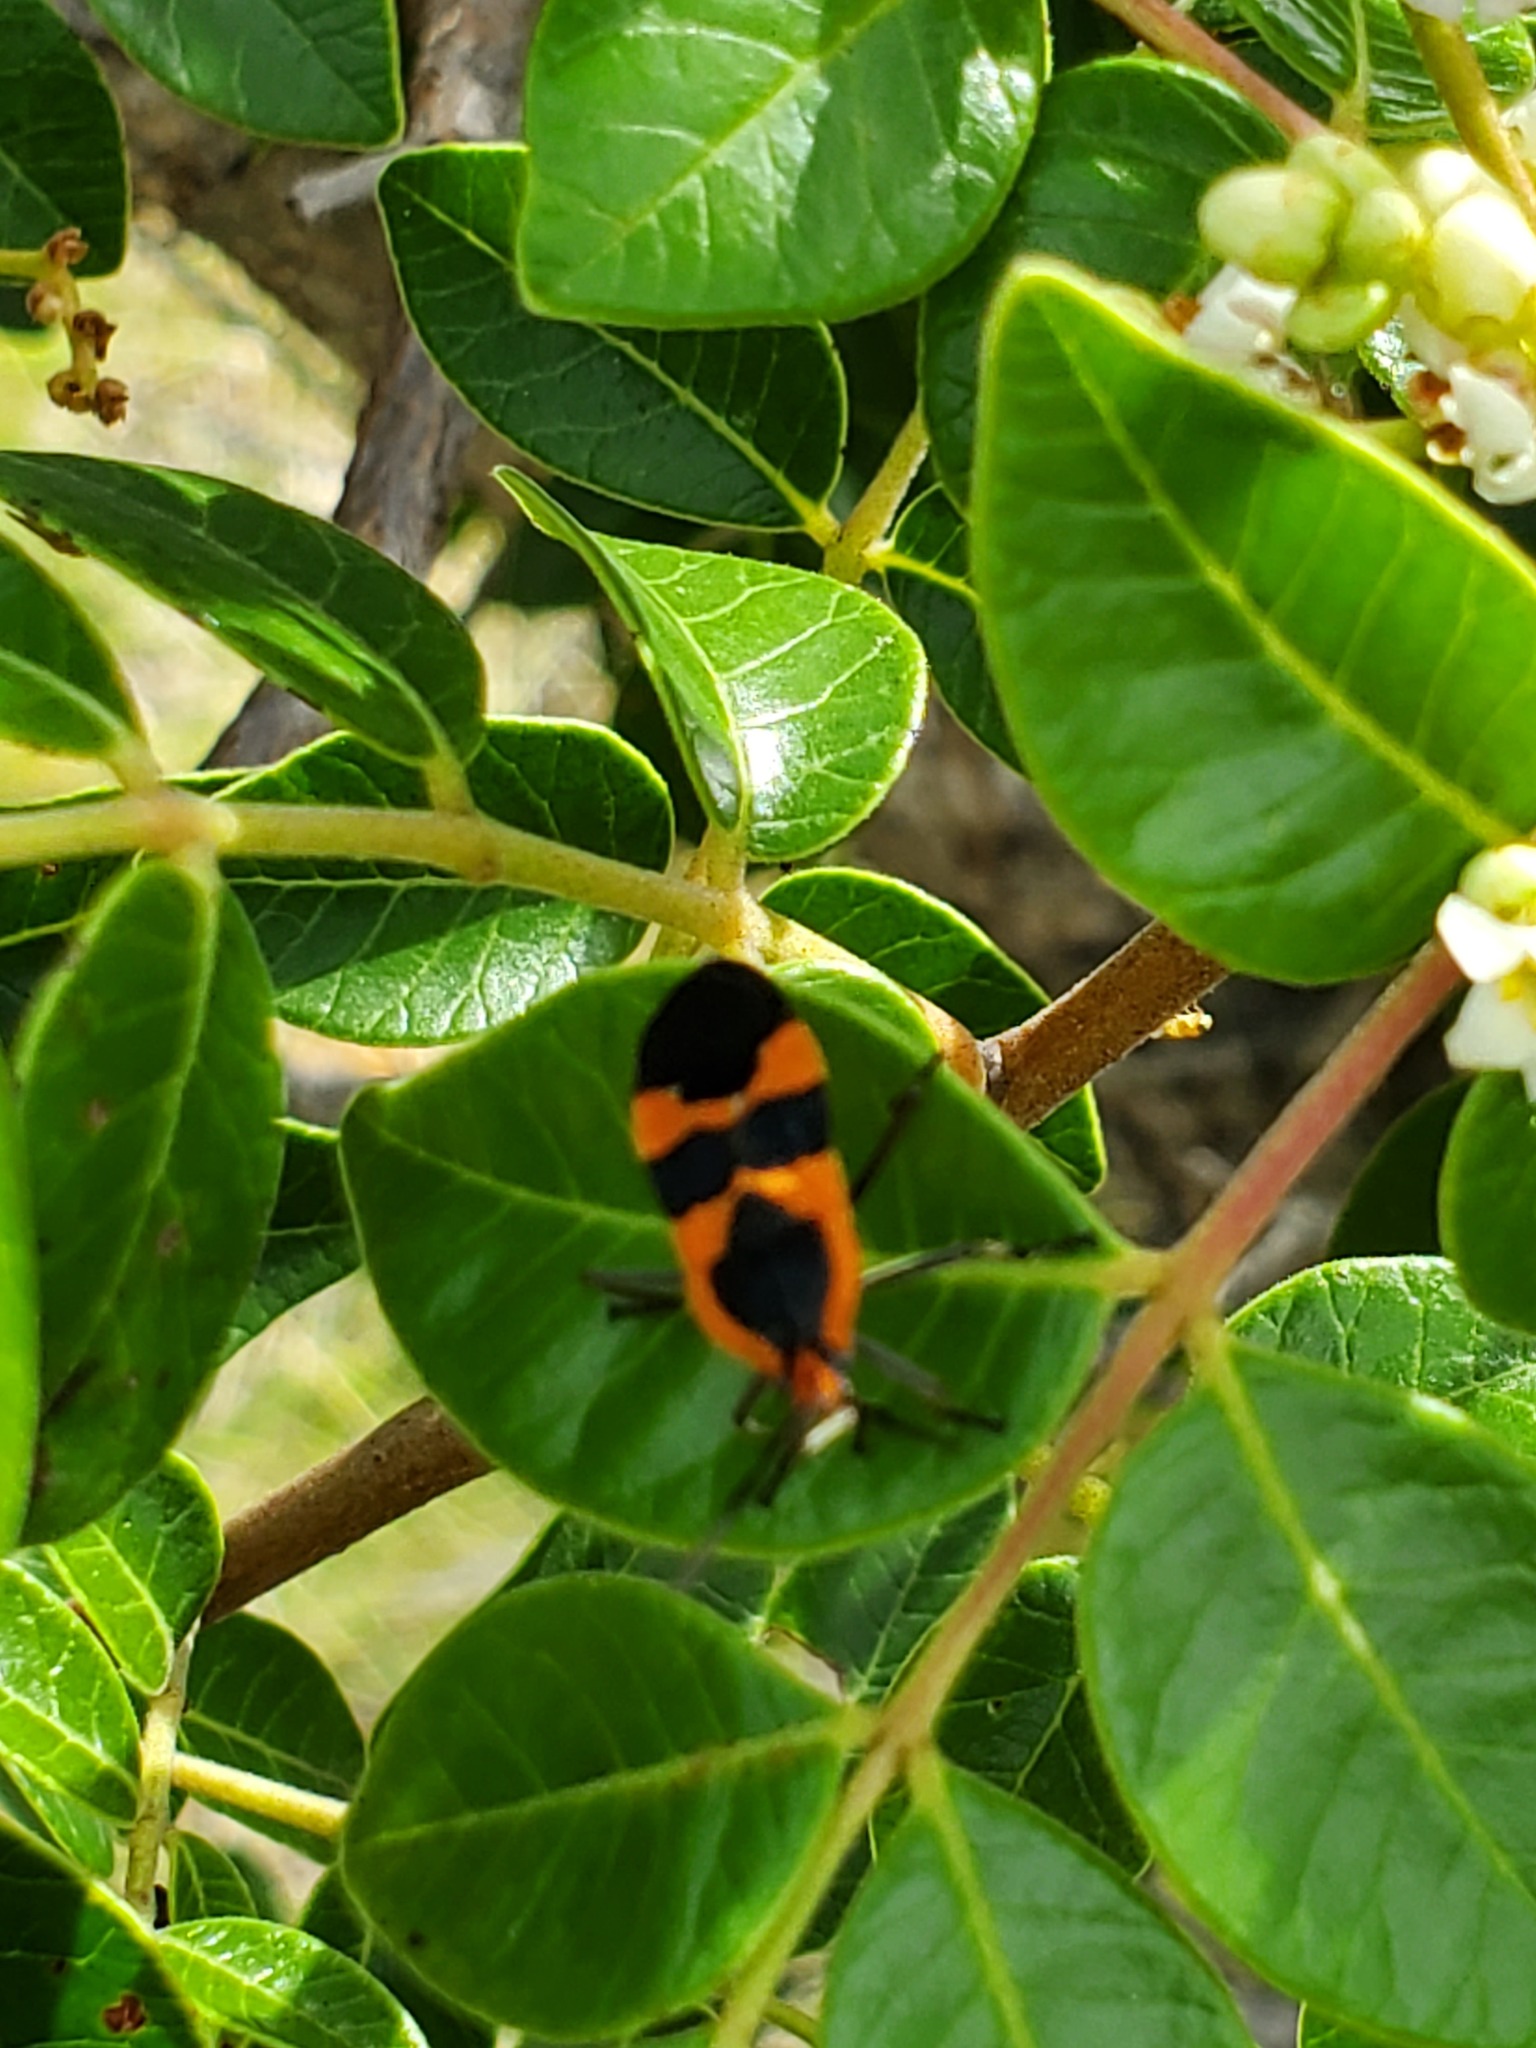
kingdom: Animalia
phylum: Arthropoda
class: Insecta
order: Hemiptera
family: Lygaeidae
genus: Oncopeltus
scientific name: Oncopeltus fasciatus
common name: Large milkweed bug
